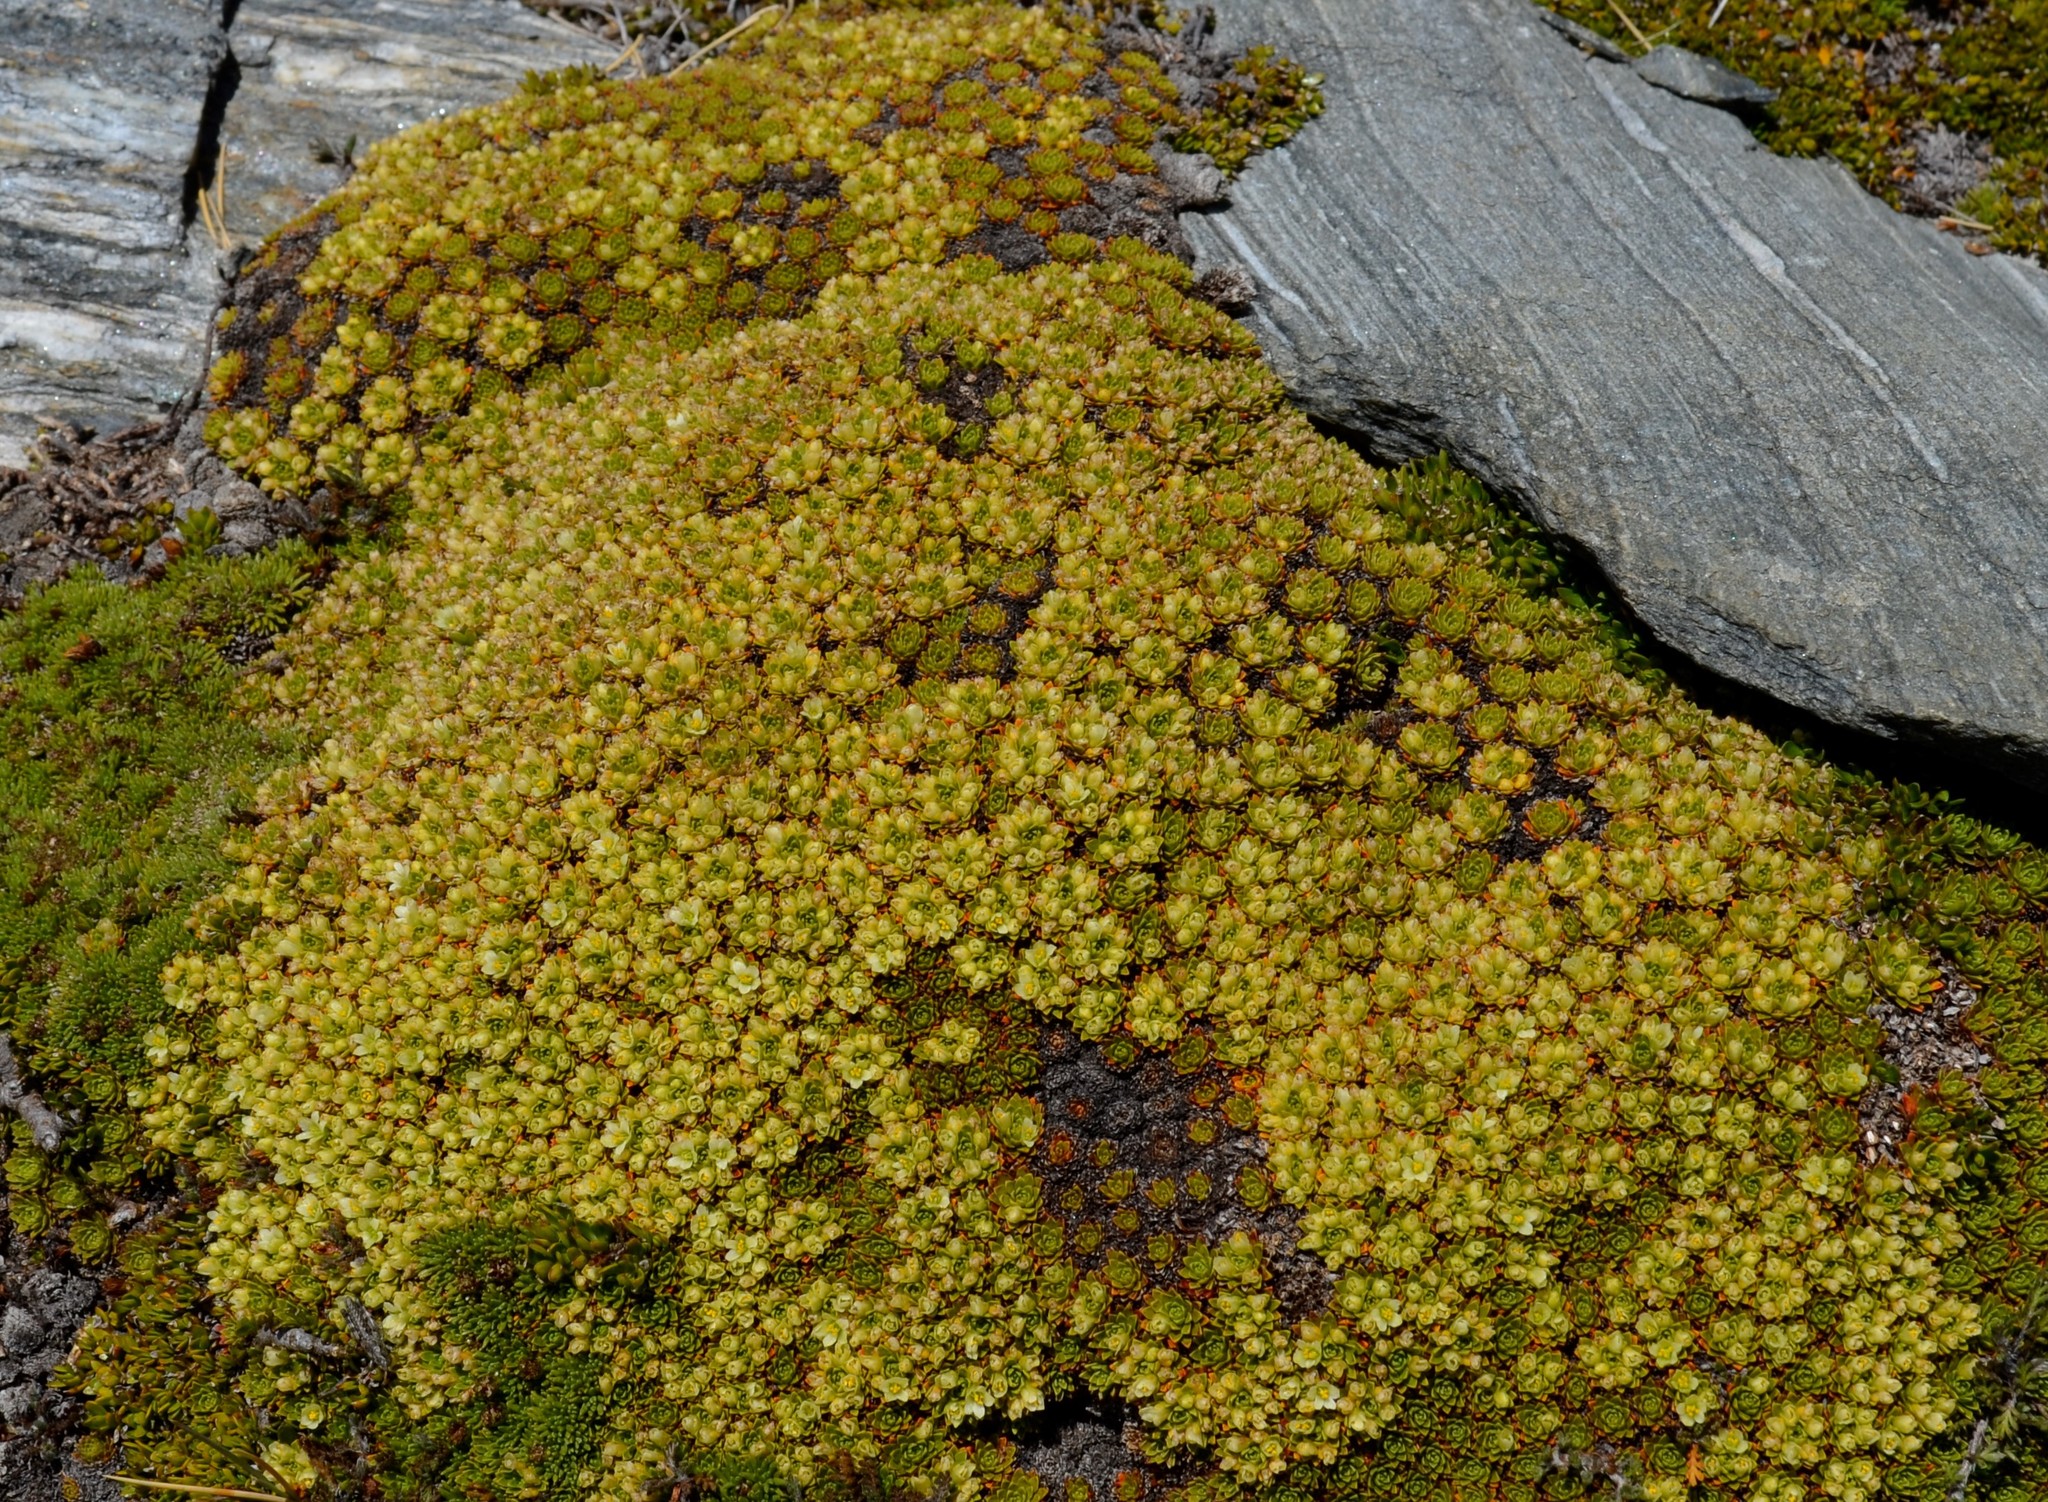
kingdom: Plantae
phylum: Tracheophyta
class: Magnoliopsida
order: Caryophyllales
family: Montiaceae
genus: Hectorella
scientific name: Hectorella caespitosa
